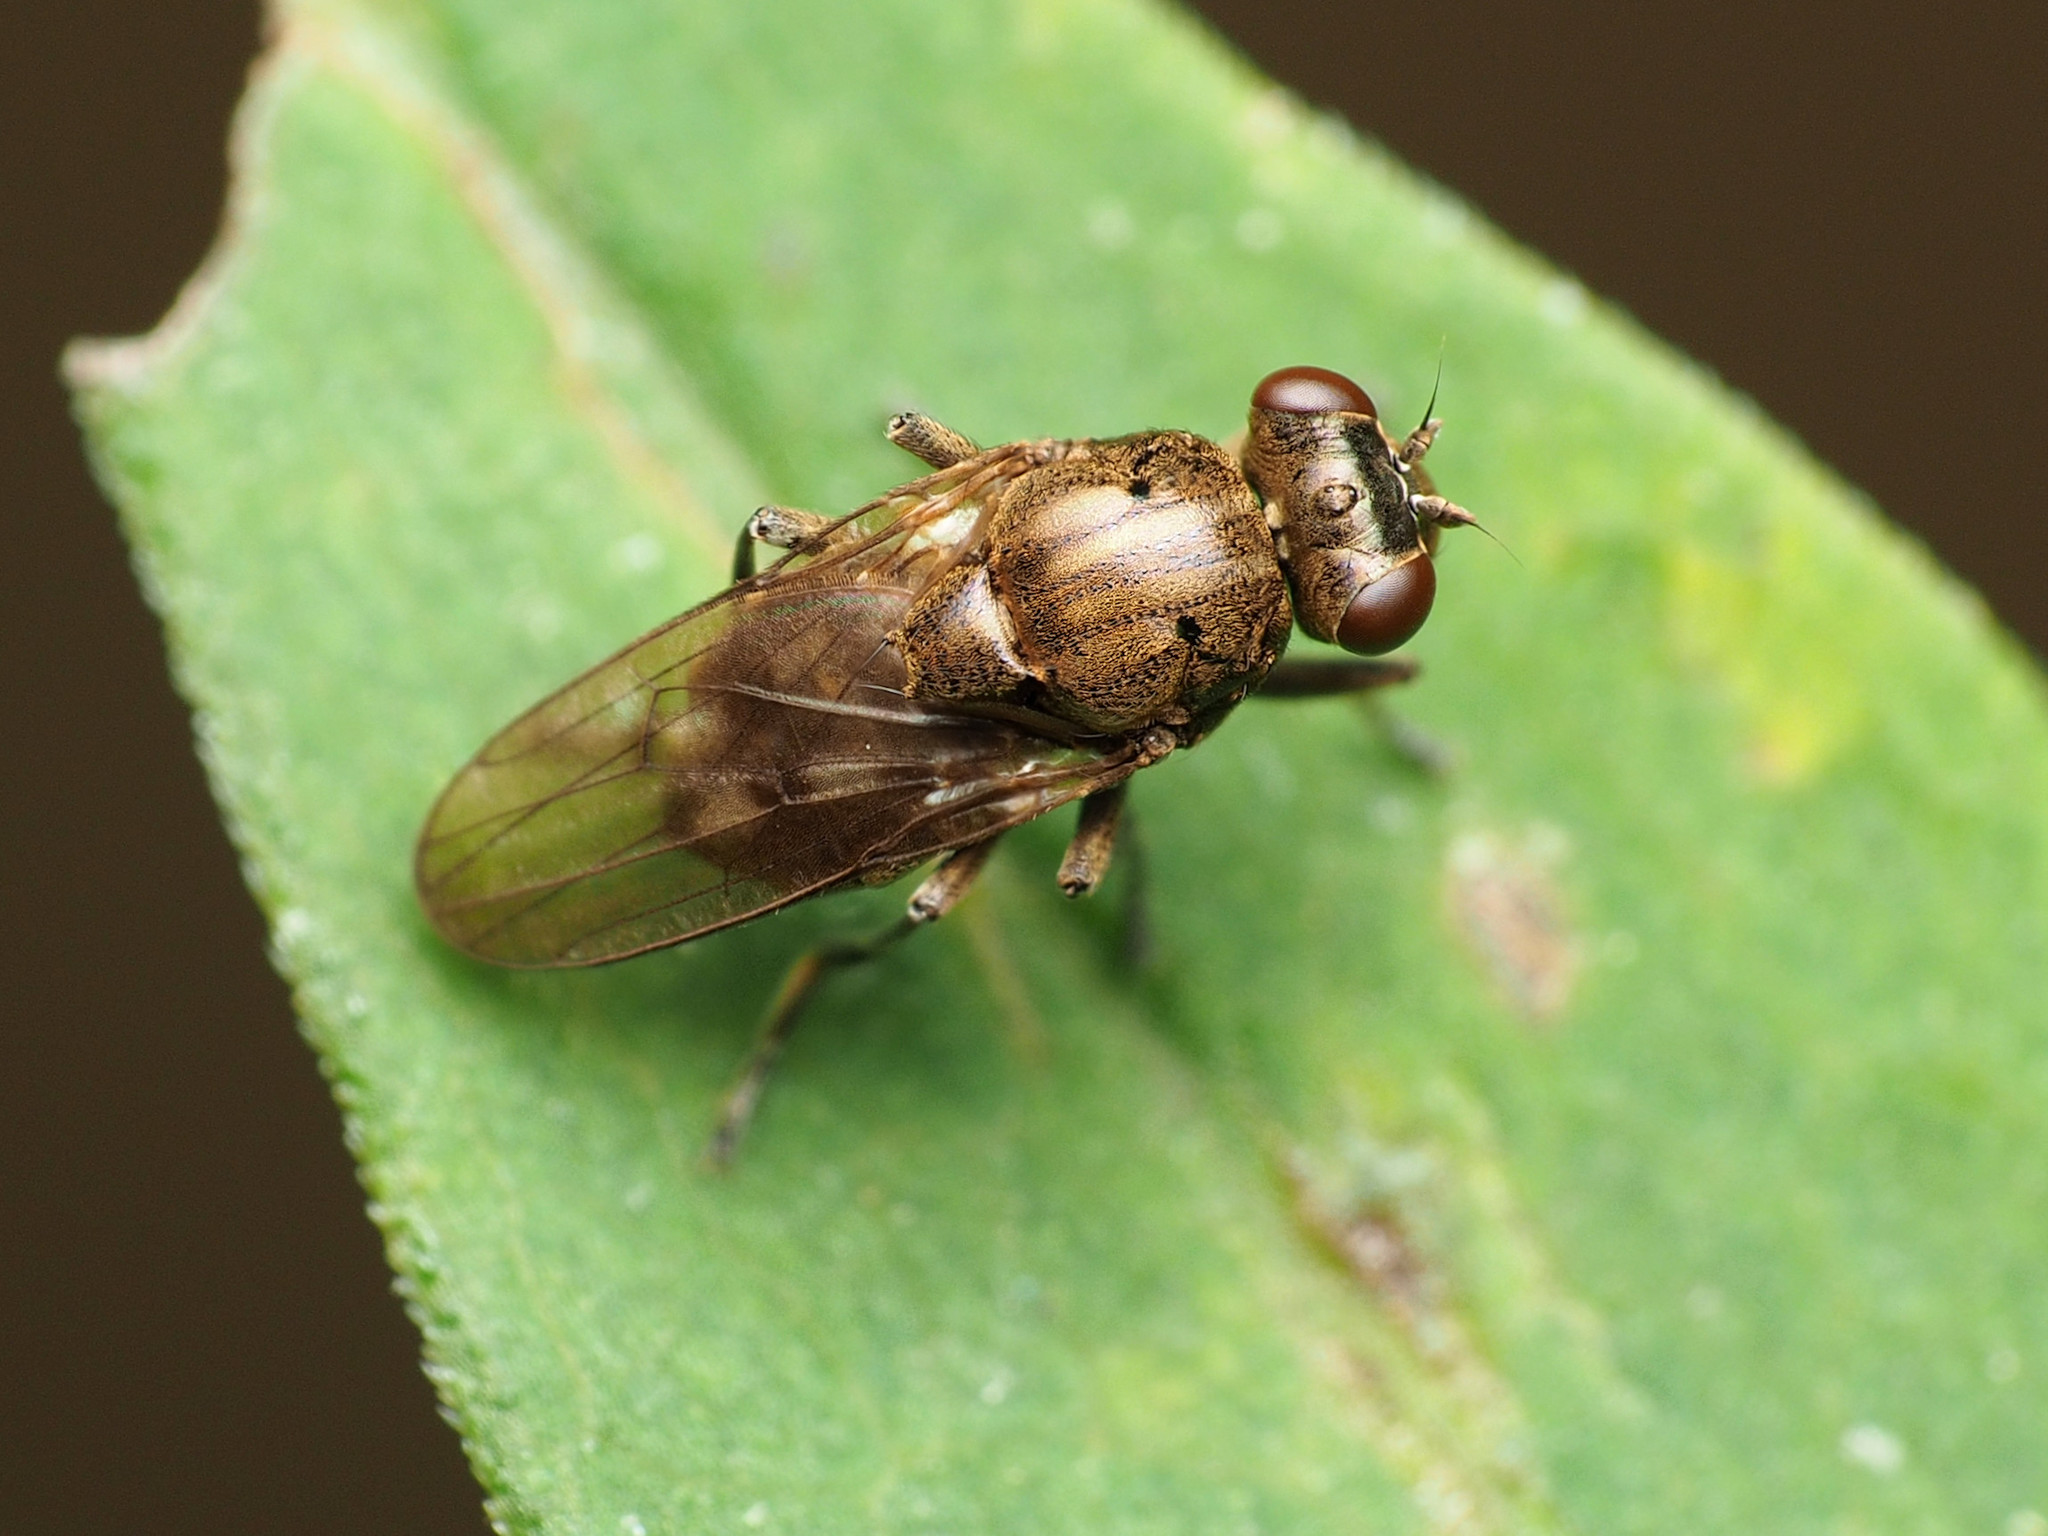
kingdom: Animalia
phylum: Arthropoda
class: Insecta
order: Diptera
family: Ephydridae
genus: Parydra
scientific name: Parydra aquila
